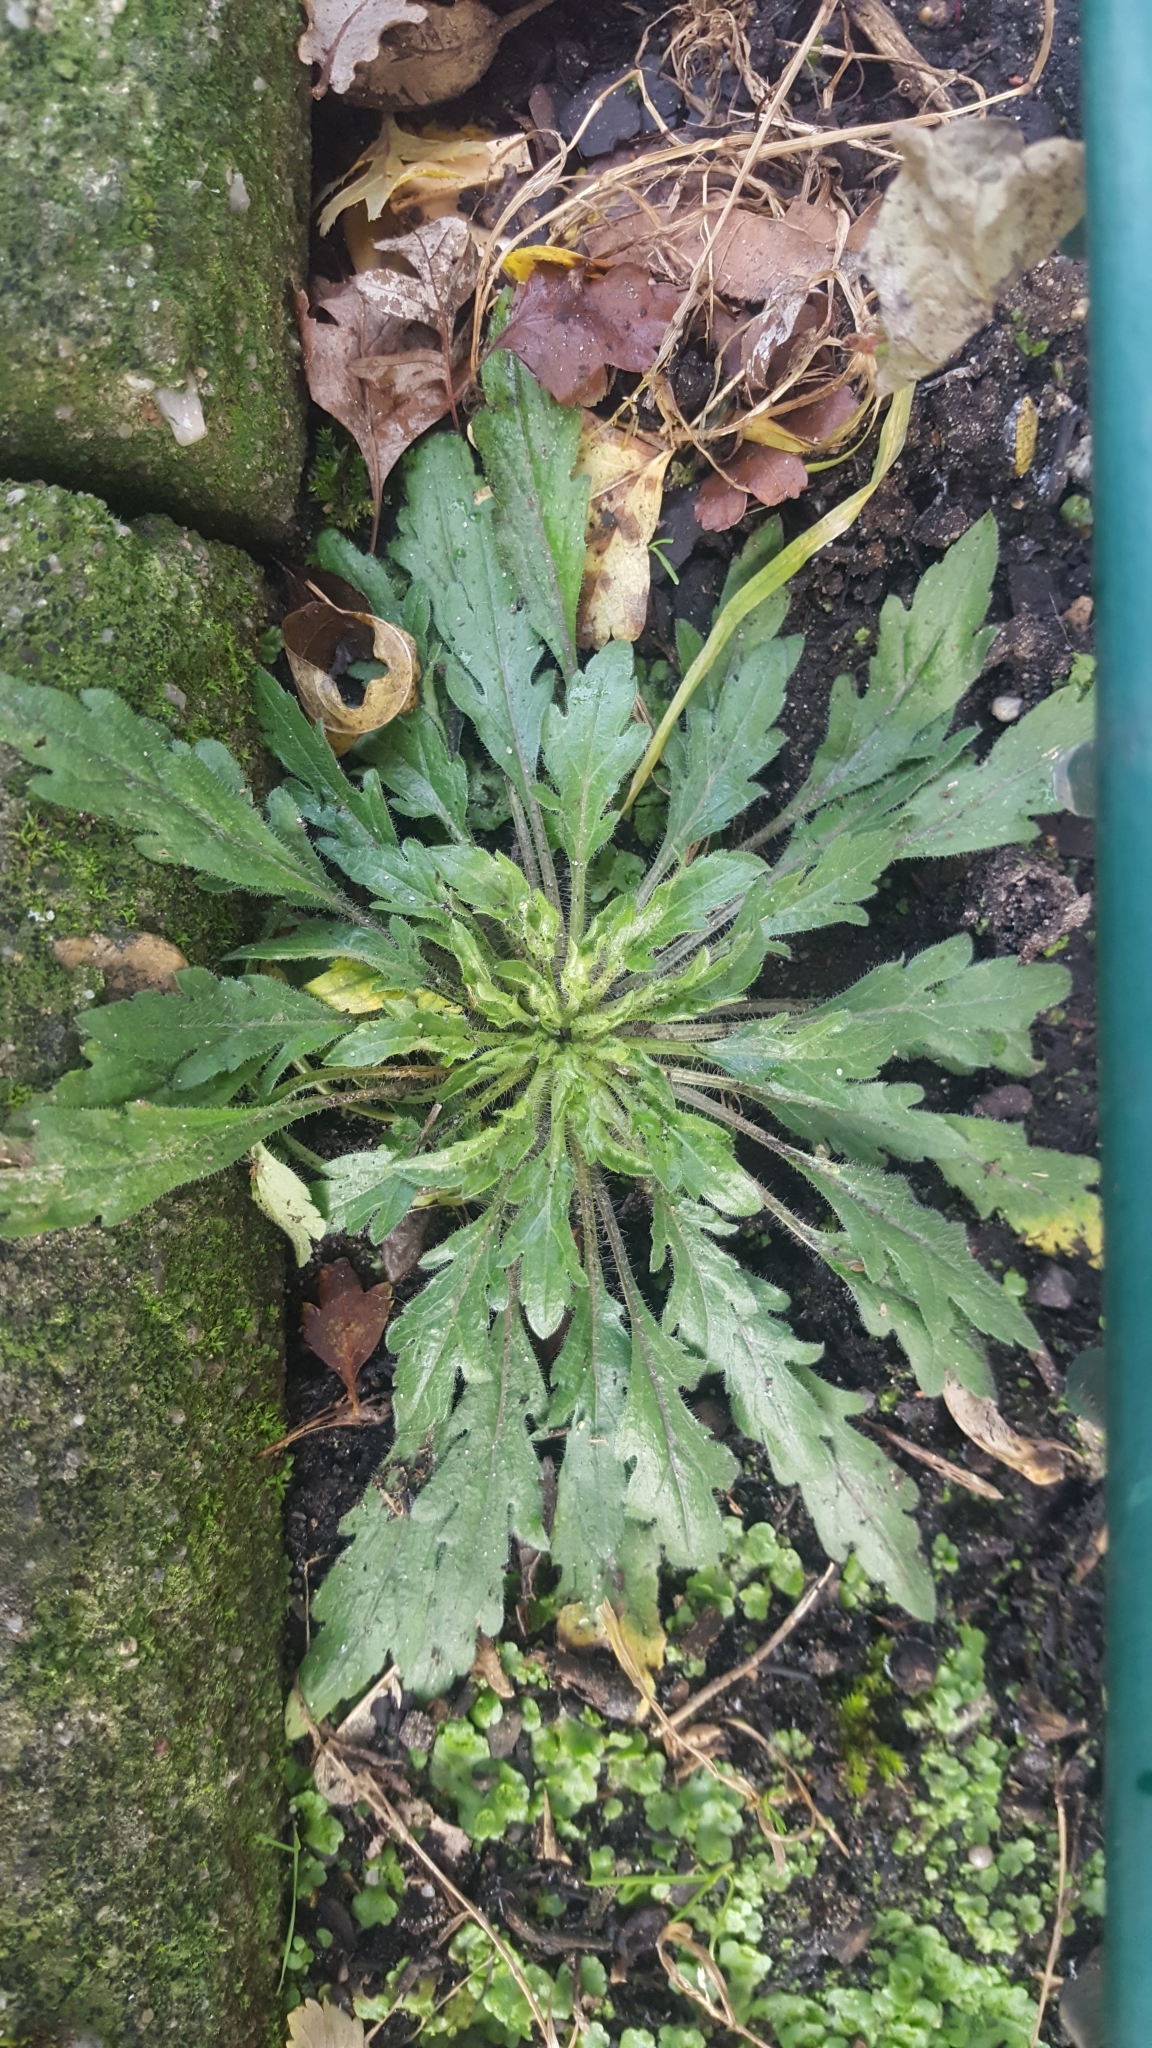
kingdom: Plantae
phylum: Tracheophyta
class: Magnoliopsida
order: Asterales
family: Asteraceae
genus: Erigeron
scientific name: Erigeron canadensis
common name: Canadian fleabane
